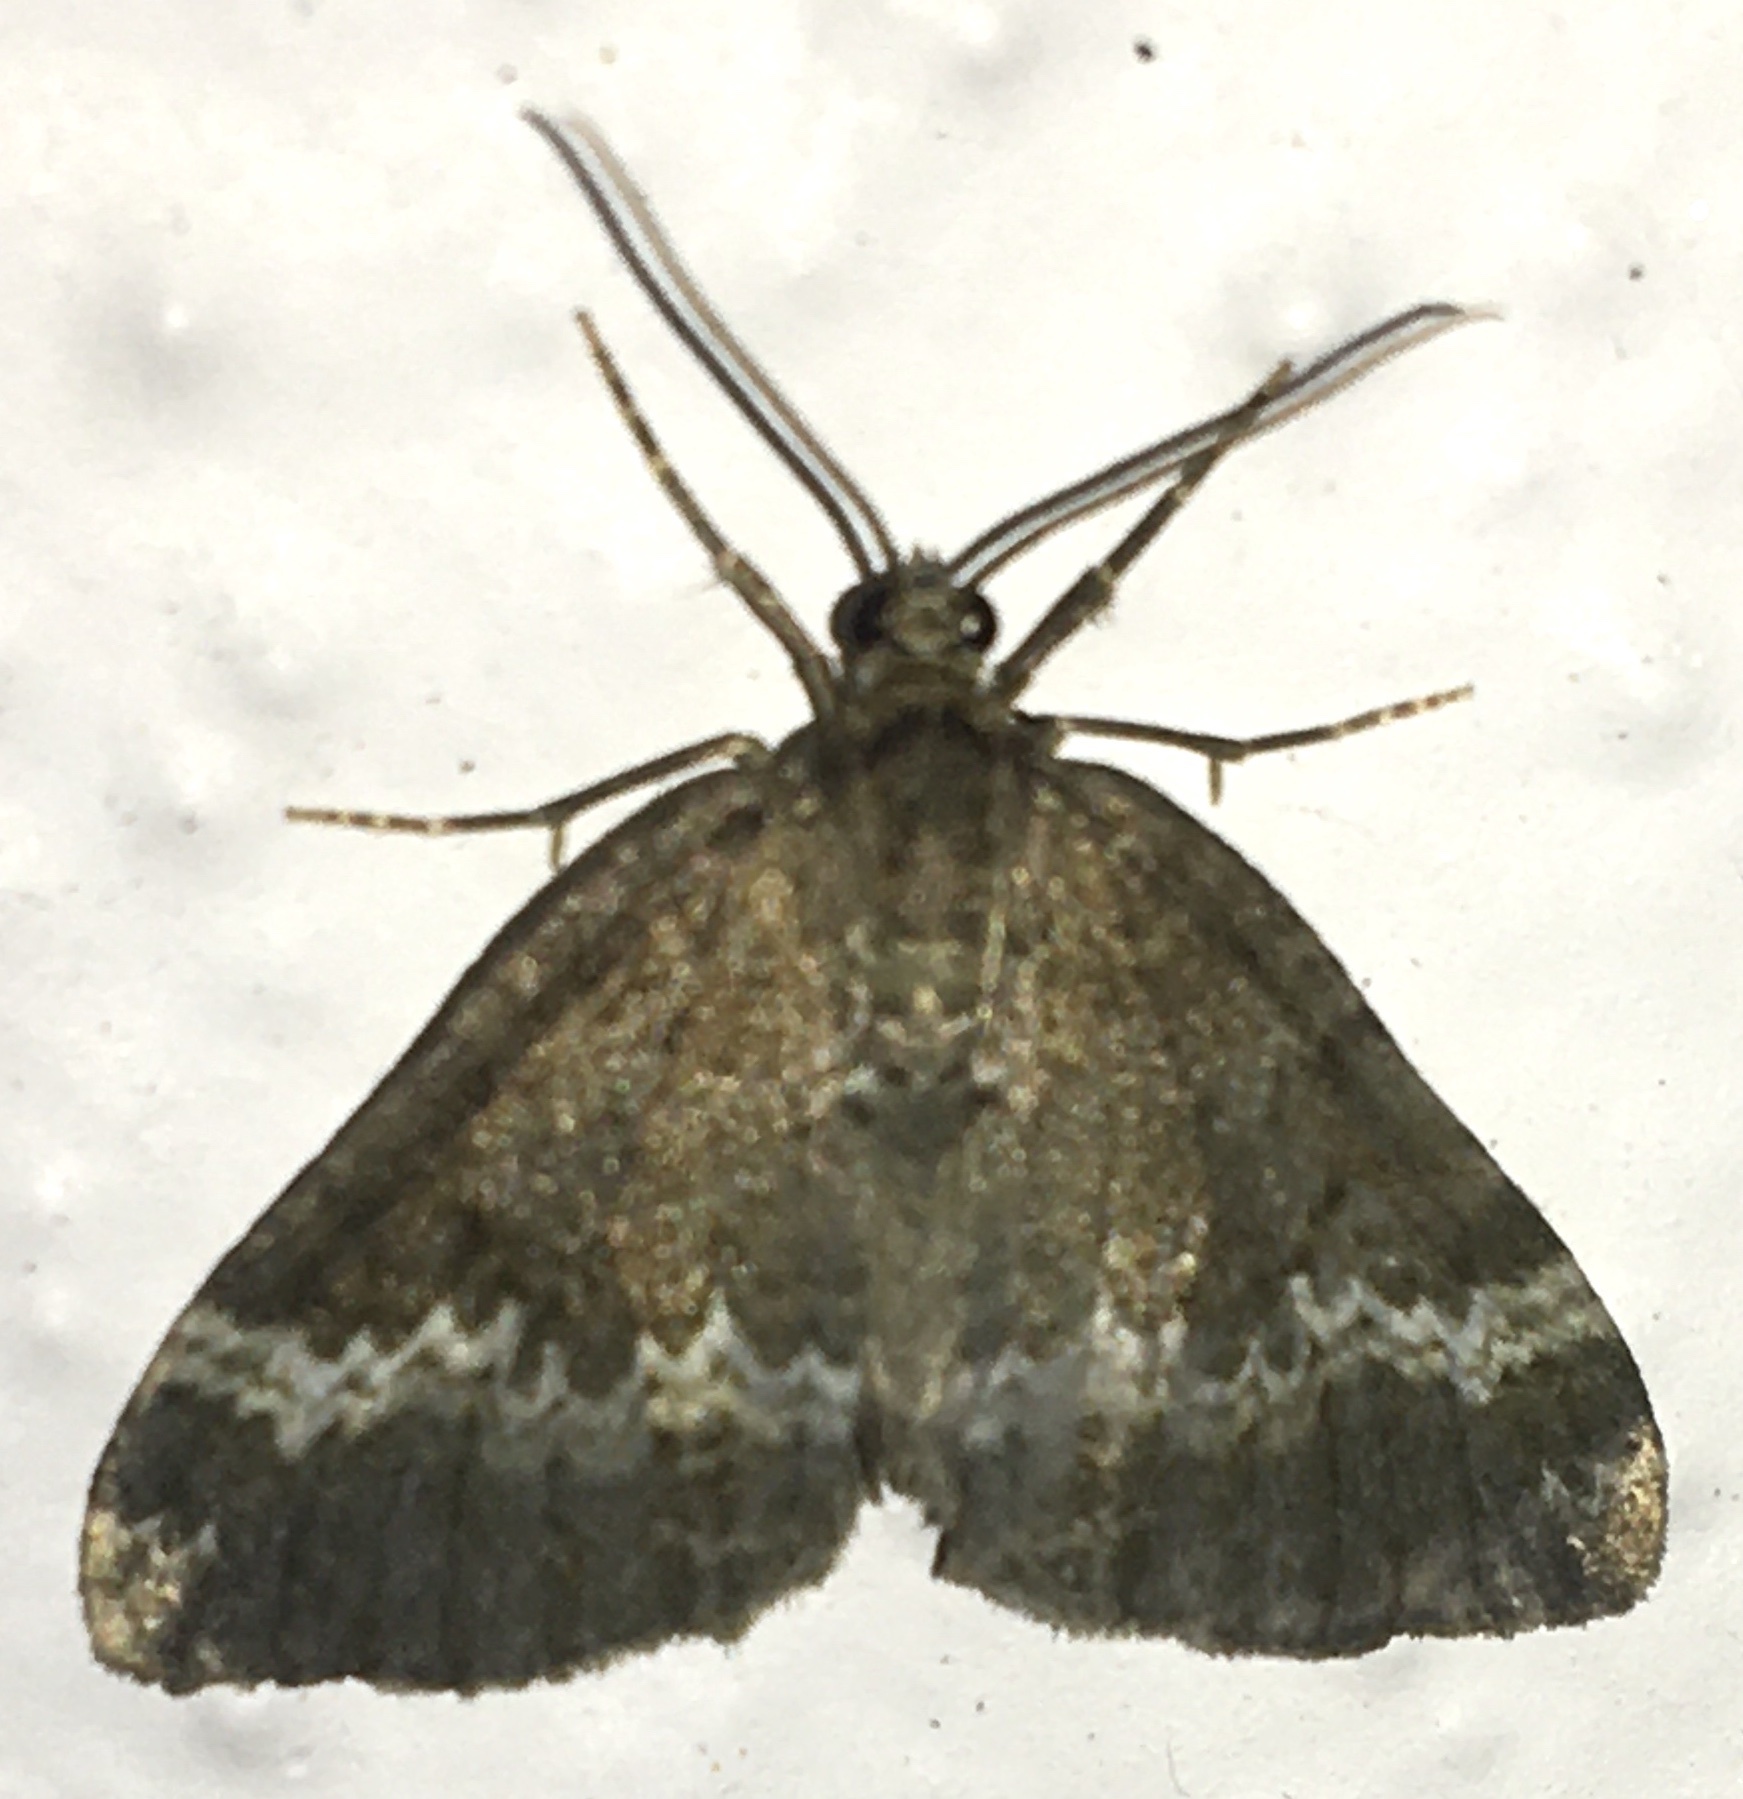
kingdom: Animalia
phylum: Arthropoda
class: Insecta
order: Lepidoptera
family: Geometridae
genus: Perizoma
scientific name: Perizoma alchemillata
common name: Small rivulet
